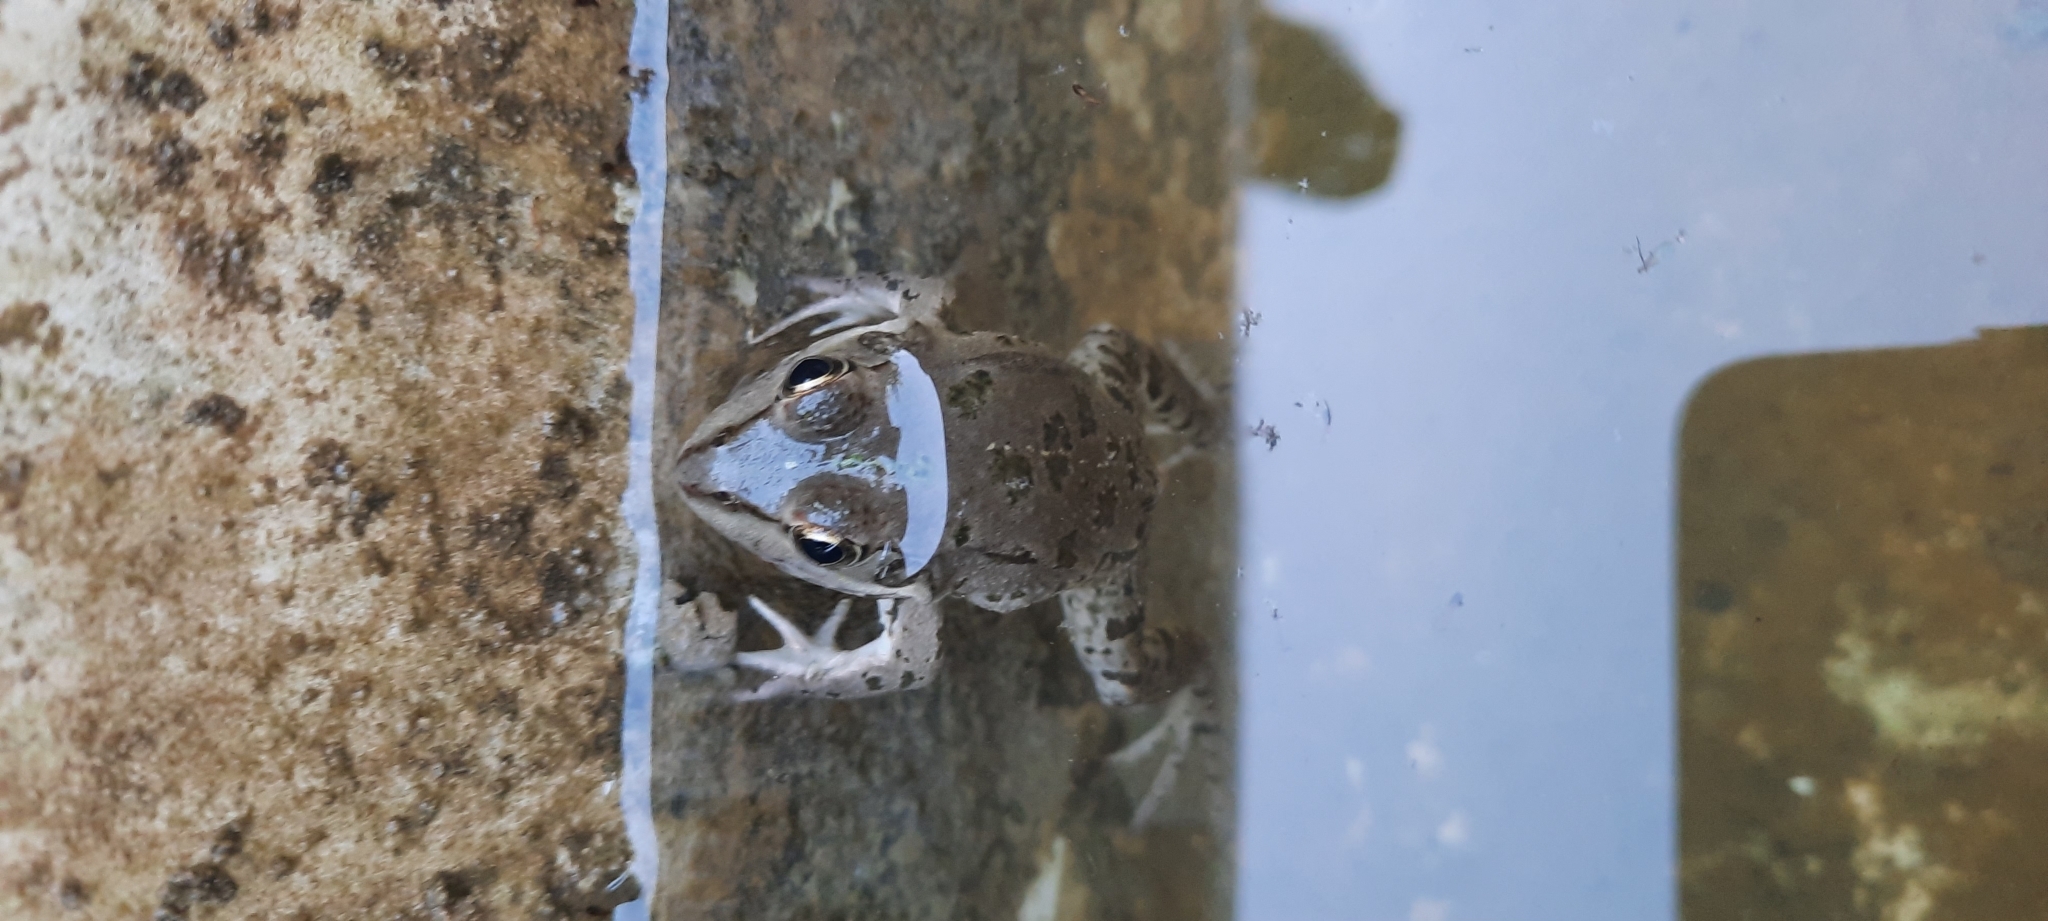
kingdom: Animalia
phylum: Chordata
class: Amphibia
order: Anura
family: Ranidae
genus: Pelophylax
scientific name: Pelophylax ridibundus
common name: Marsh frog
